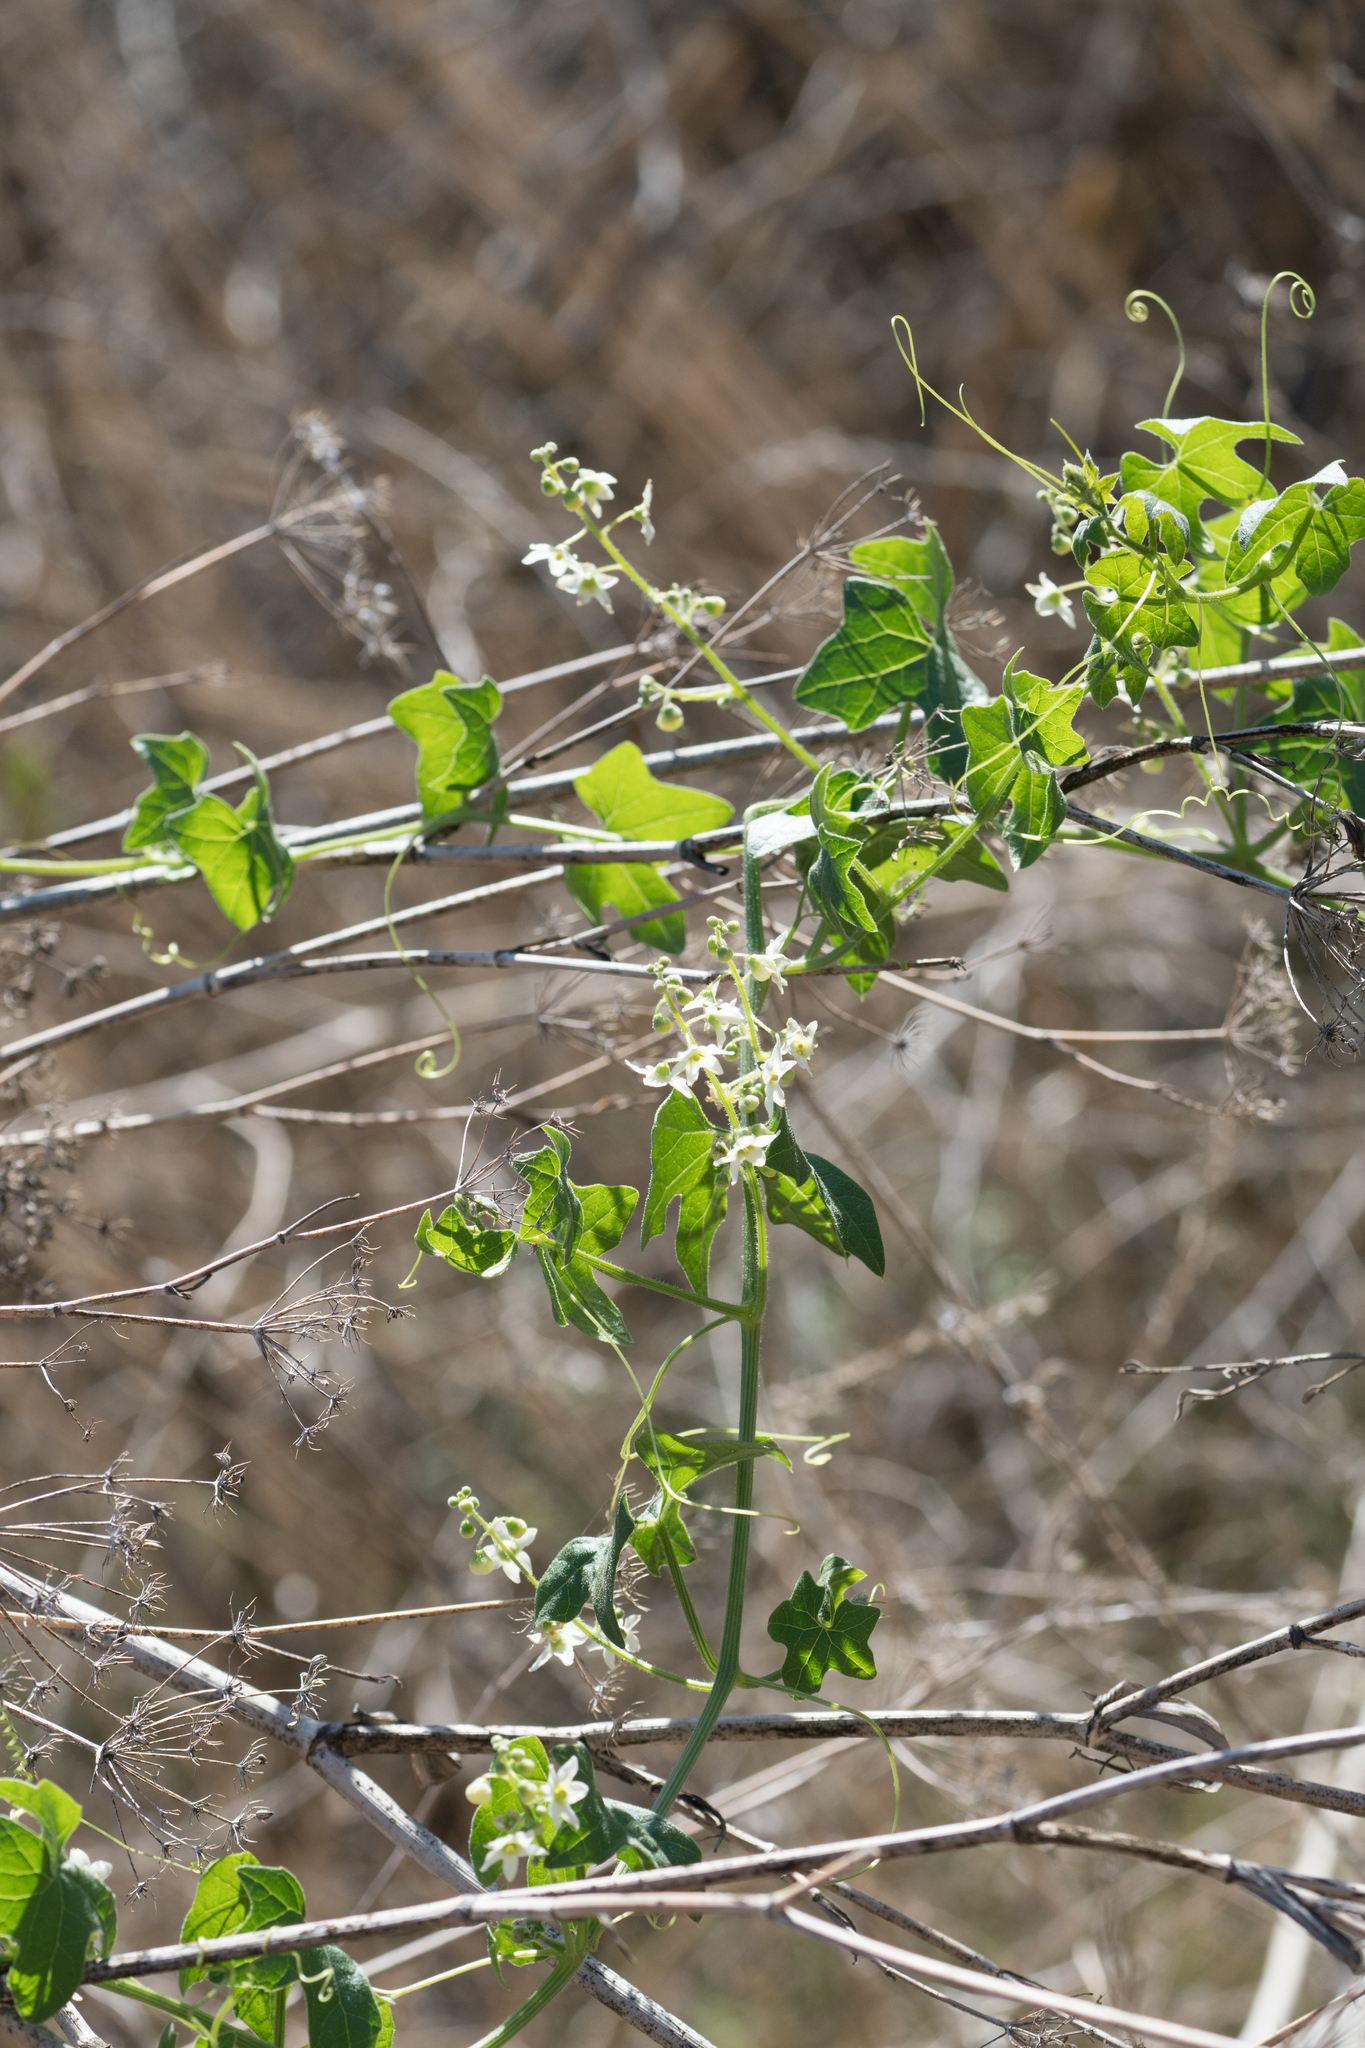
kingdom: Plantae
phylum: Tracheophyta
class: Magnoliopsida
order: Cucurbitales
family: Cucurbitaceae
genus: Marah
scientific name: Marah macrocarpa
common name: Cucamonga manroot
